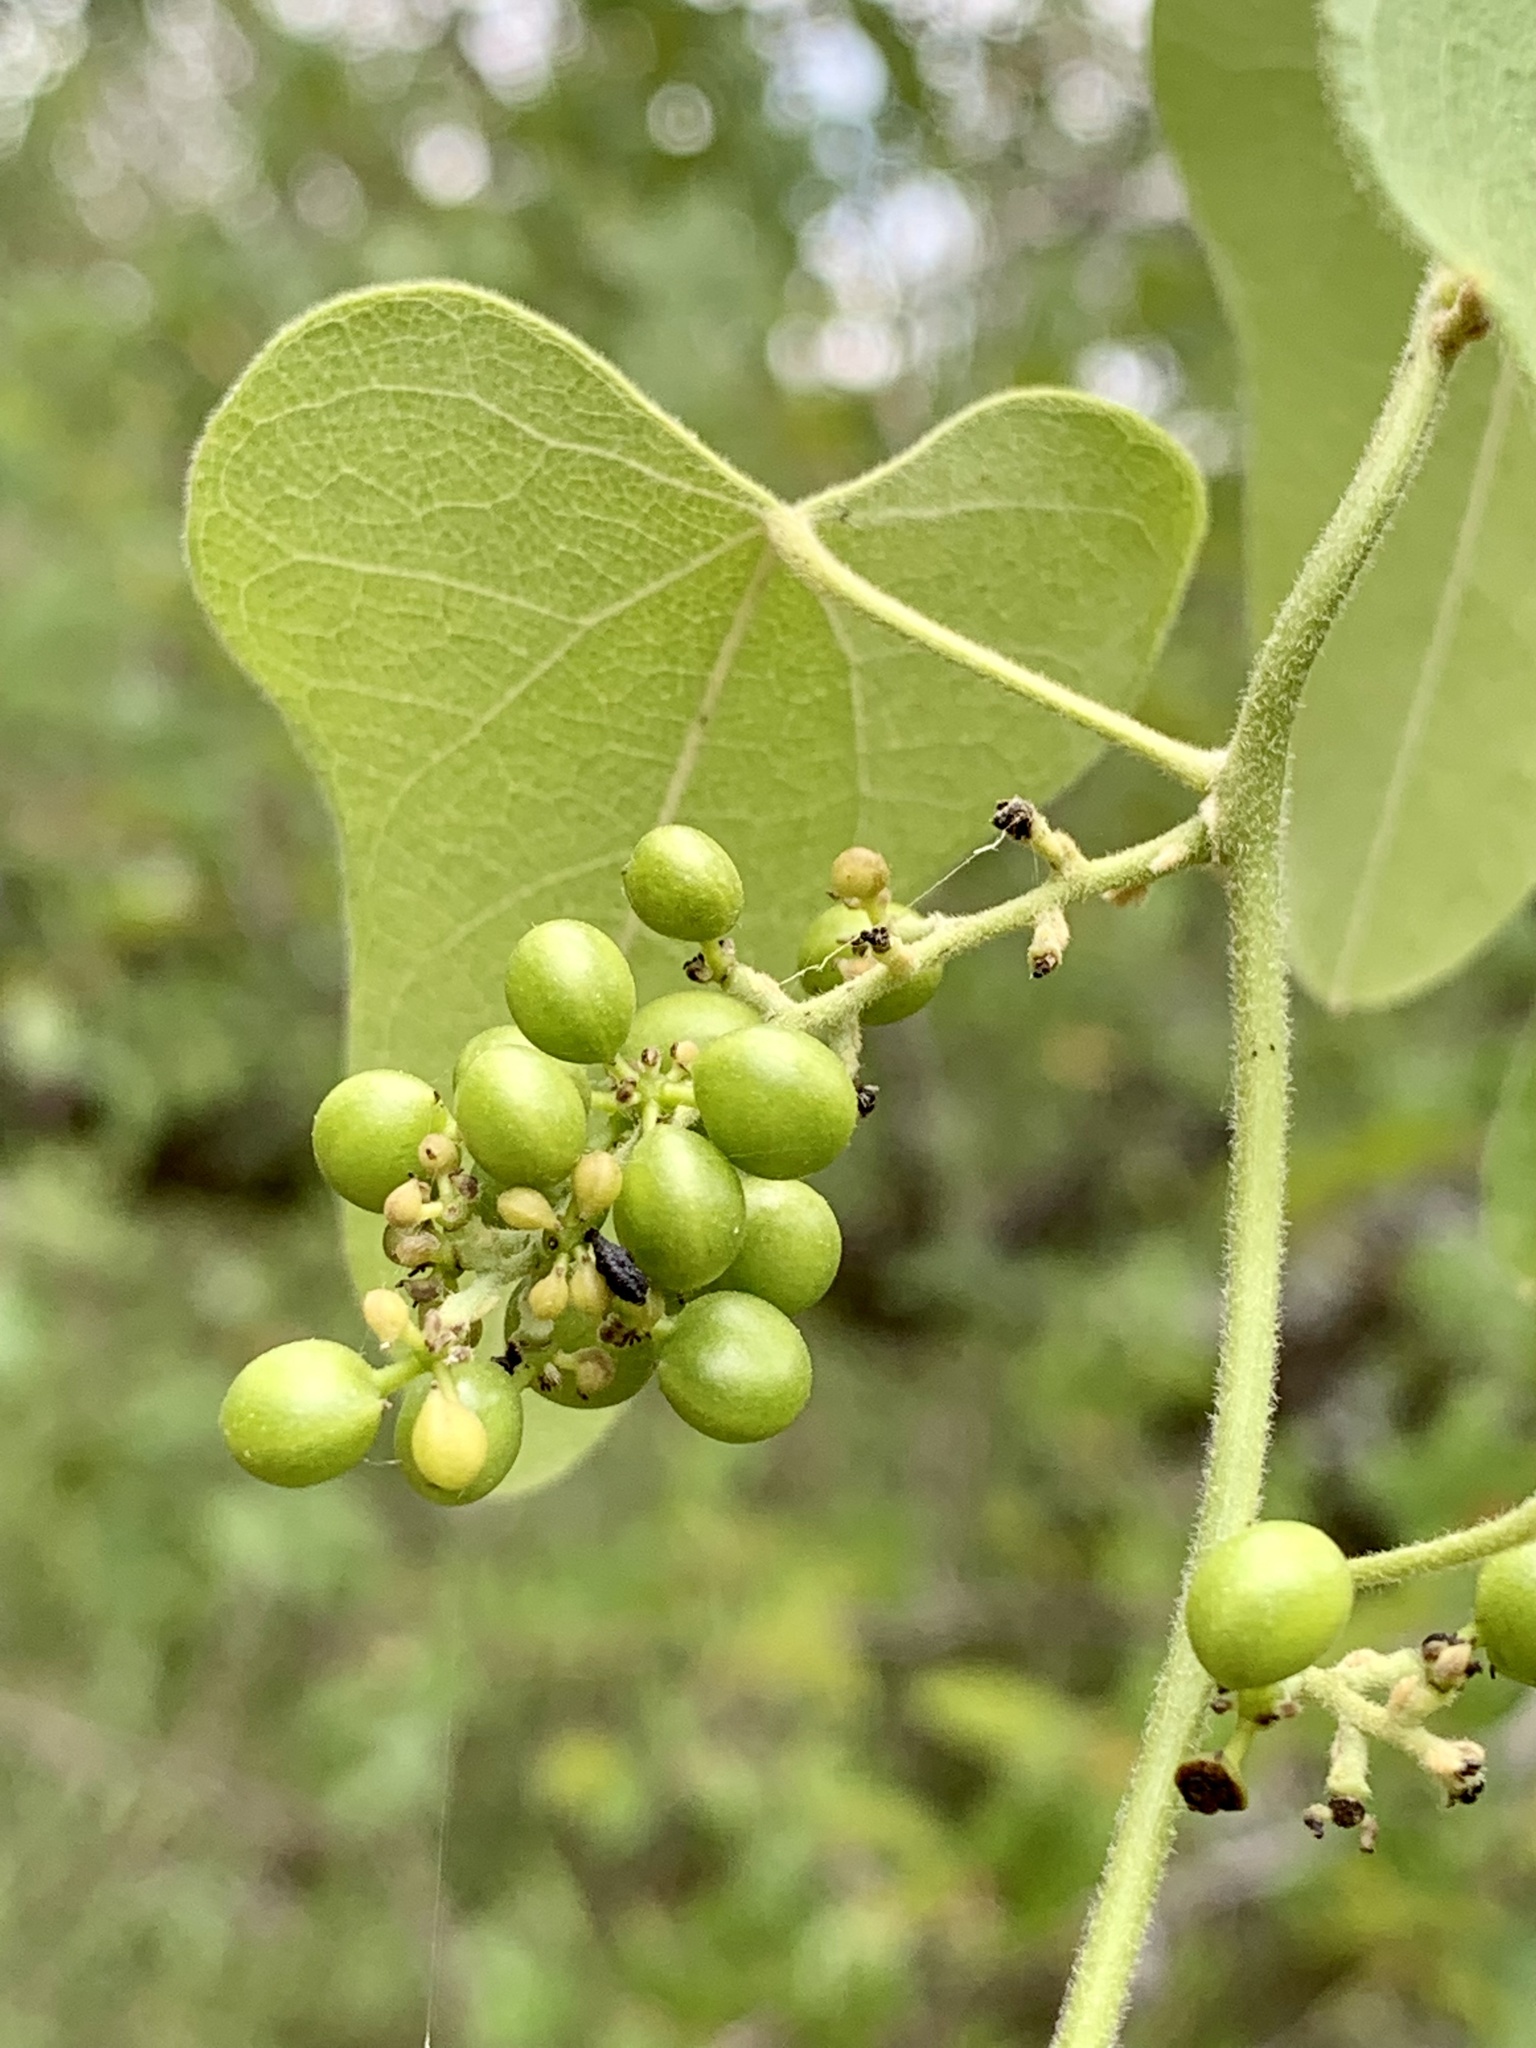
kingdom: Plantae
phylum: Tracheophyta
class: Magnoliopsida
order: Ranunculales
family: Menispermaceae
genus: Cocculus
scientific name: Cocculus carolinus
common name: Carolina moonseed
